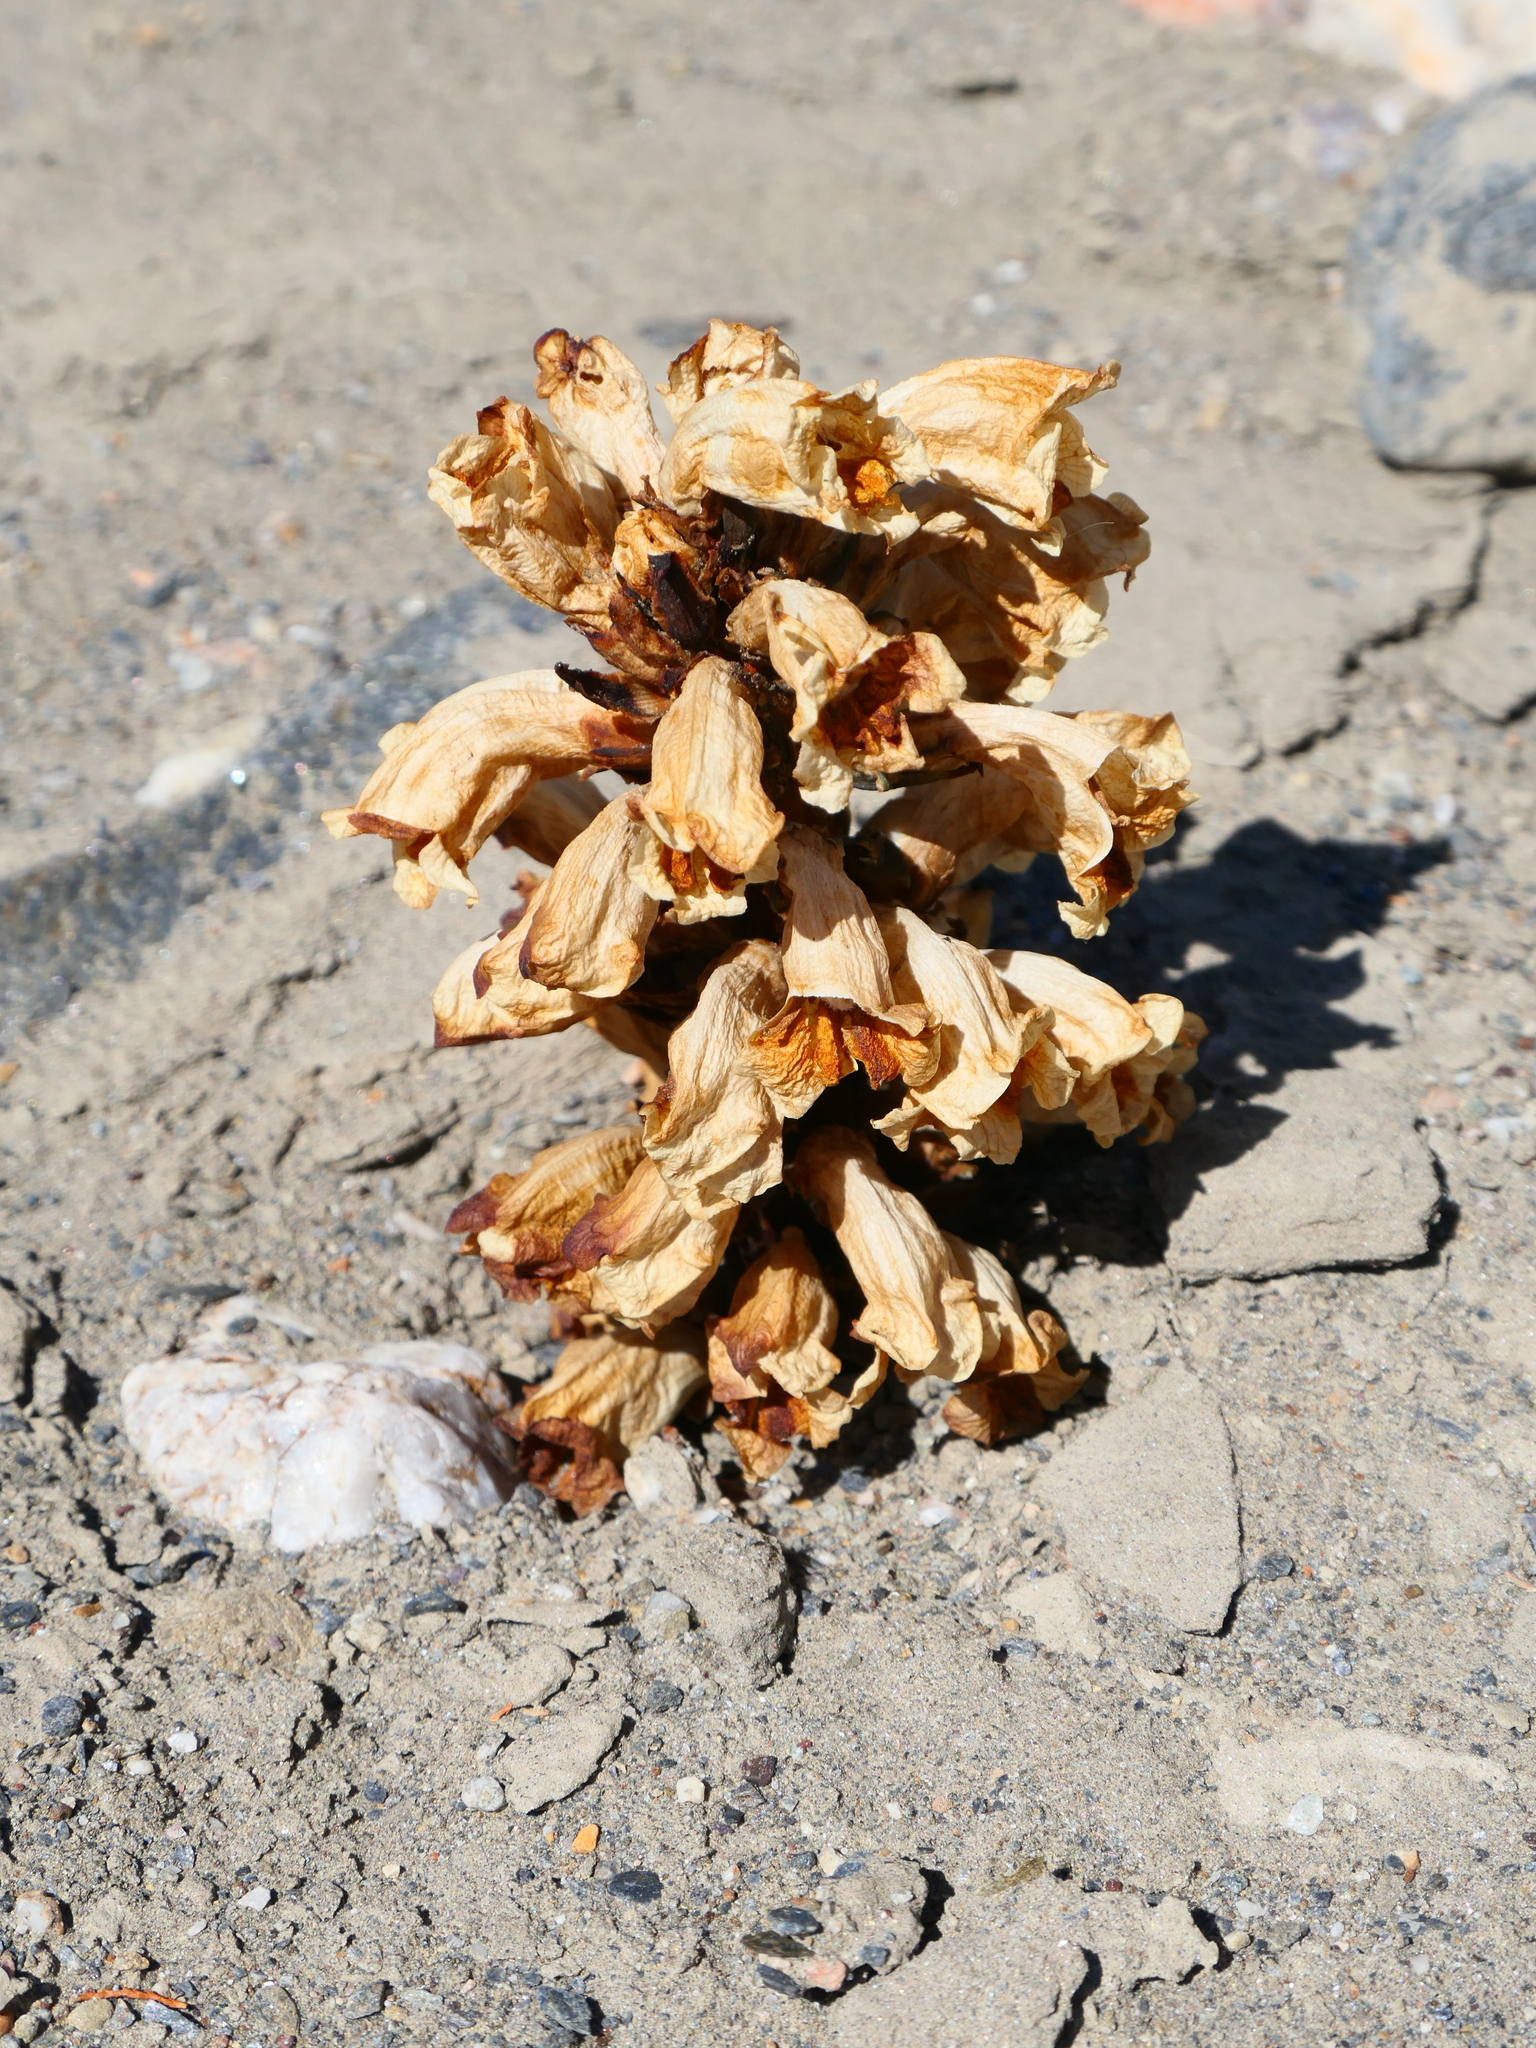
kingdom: Plantae
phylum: Tracheophyta
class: Magnoliopsida
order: Lamiales
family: Orobanchaceae
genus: Cistanche
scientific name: Cistanche
